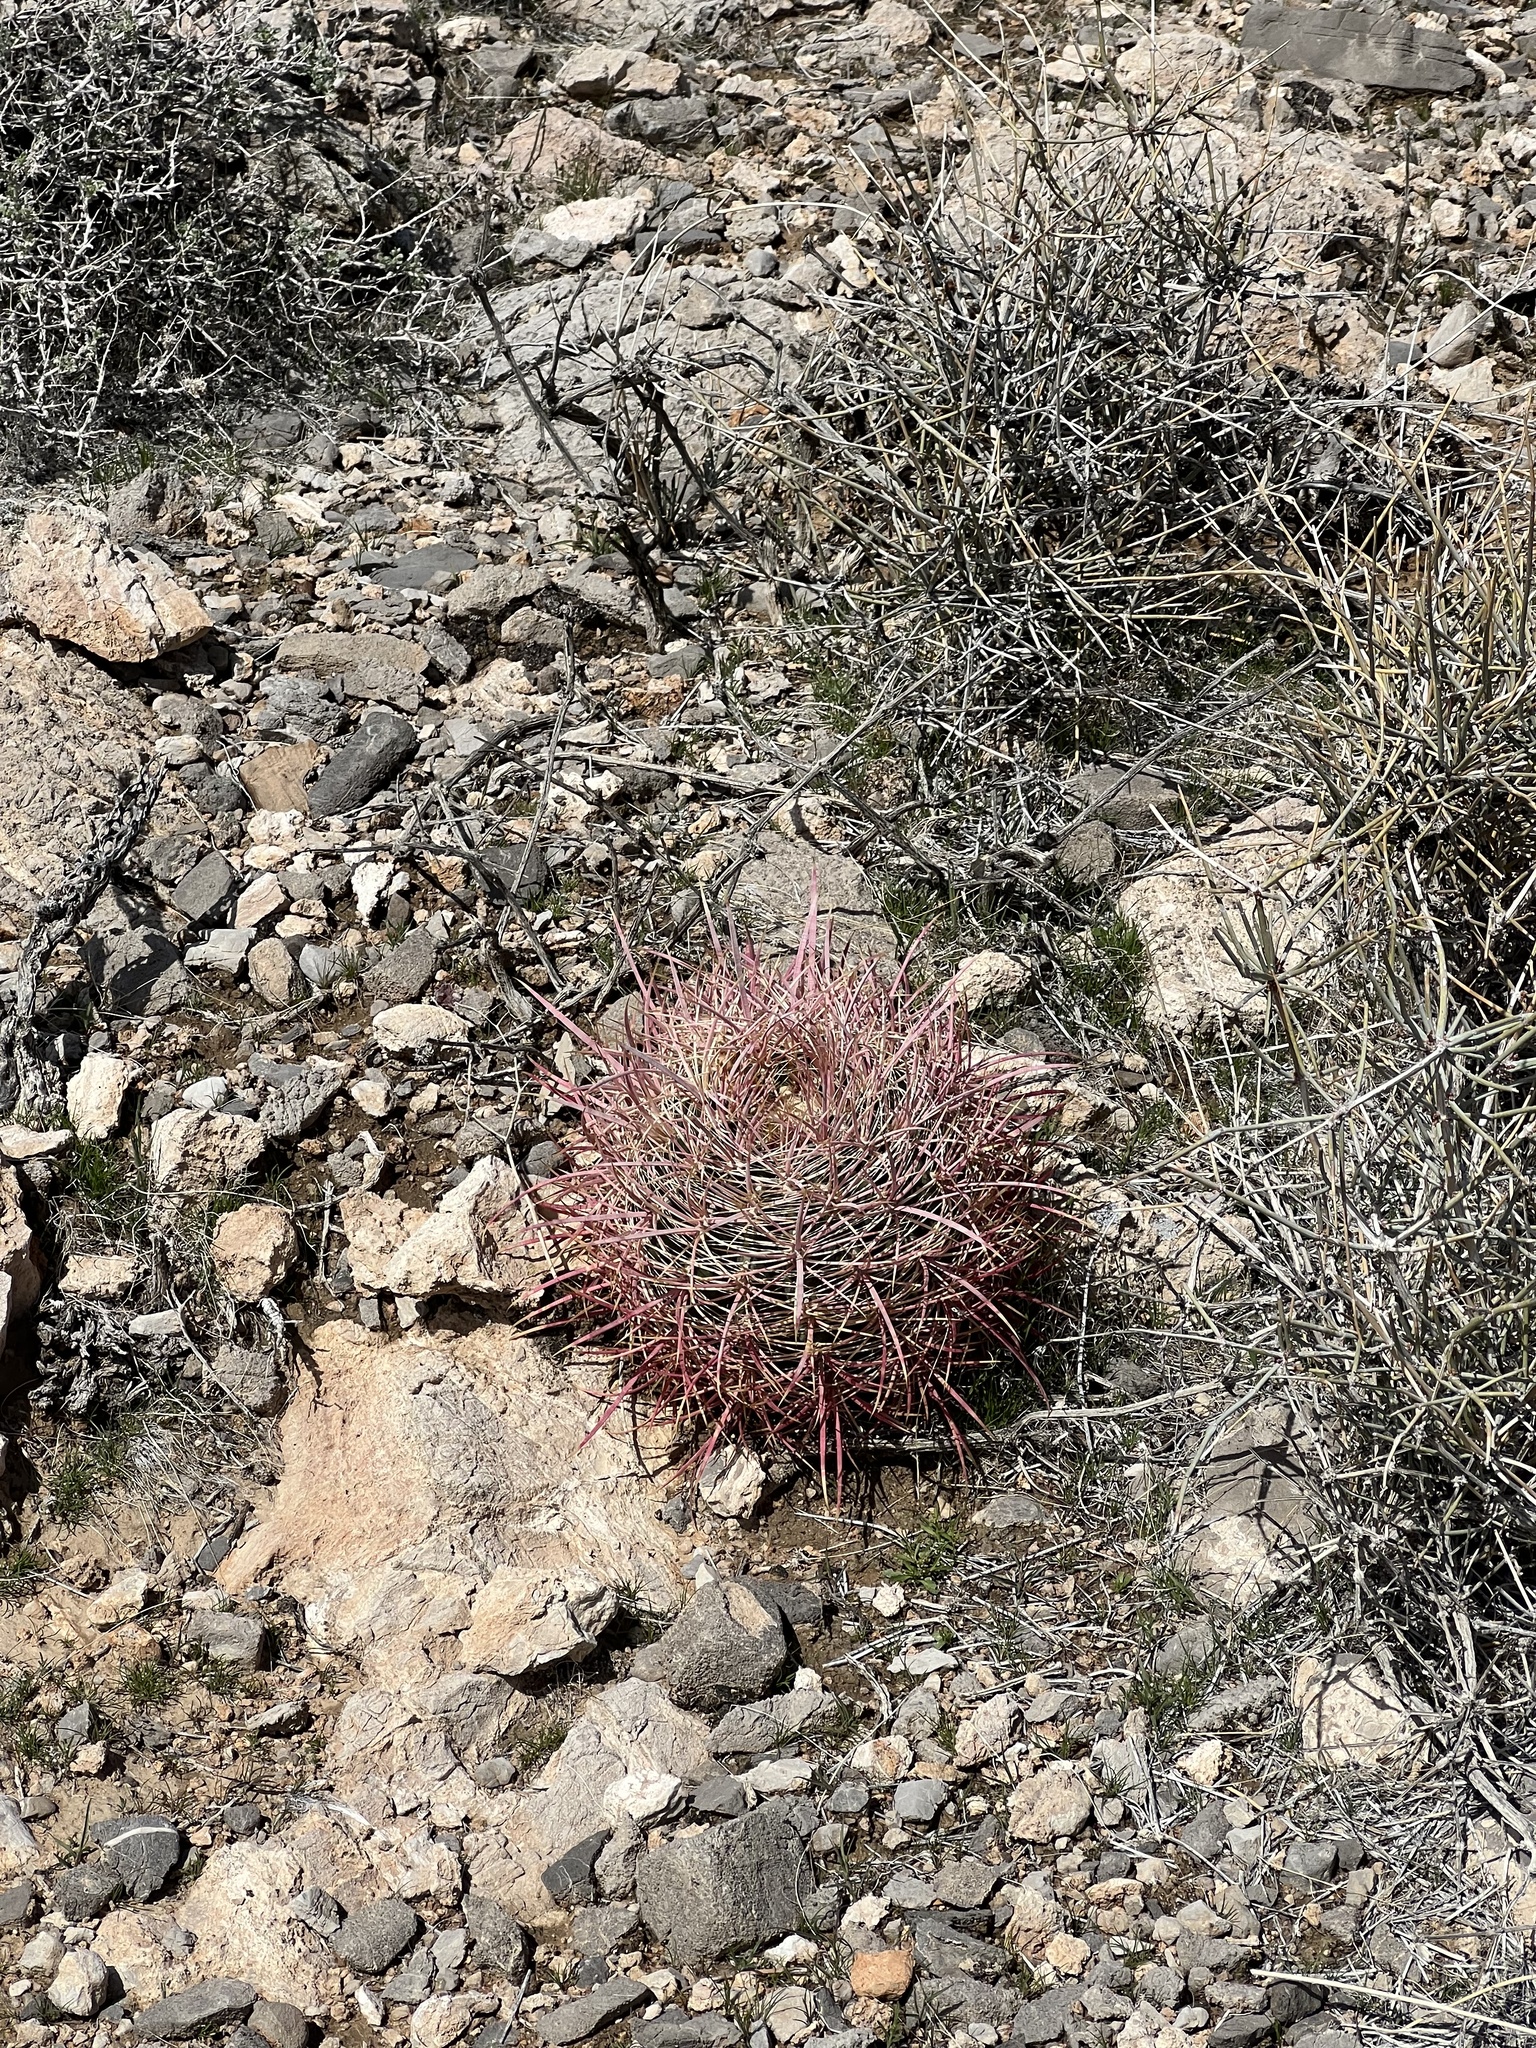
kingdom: Plantae
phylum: Tracheophyta
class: Magnoliopsida
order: Caryophyllales
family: Cactaceae
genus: Ferocactus
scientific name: Ferocactus cylindraceus
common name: California barrel cactus
